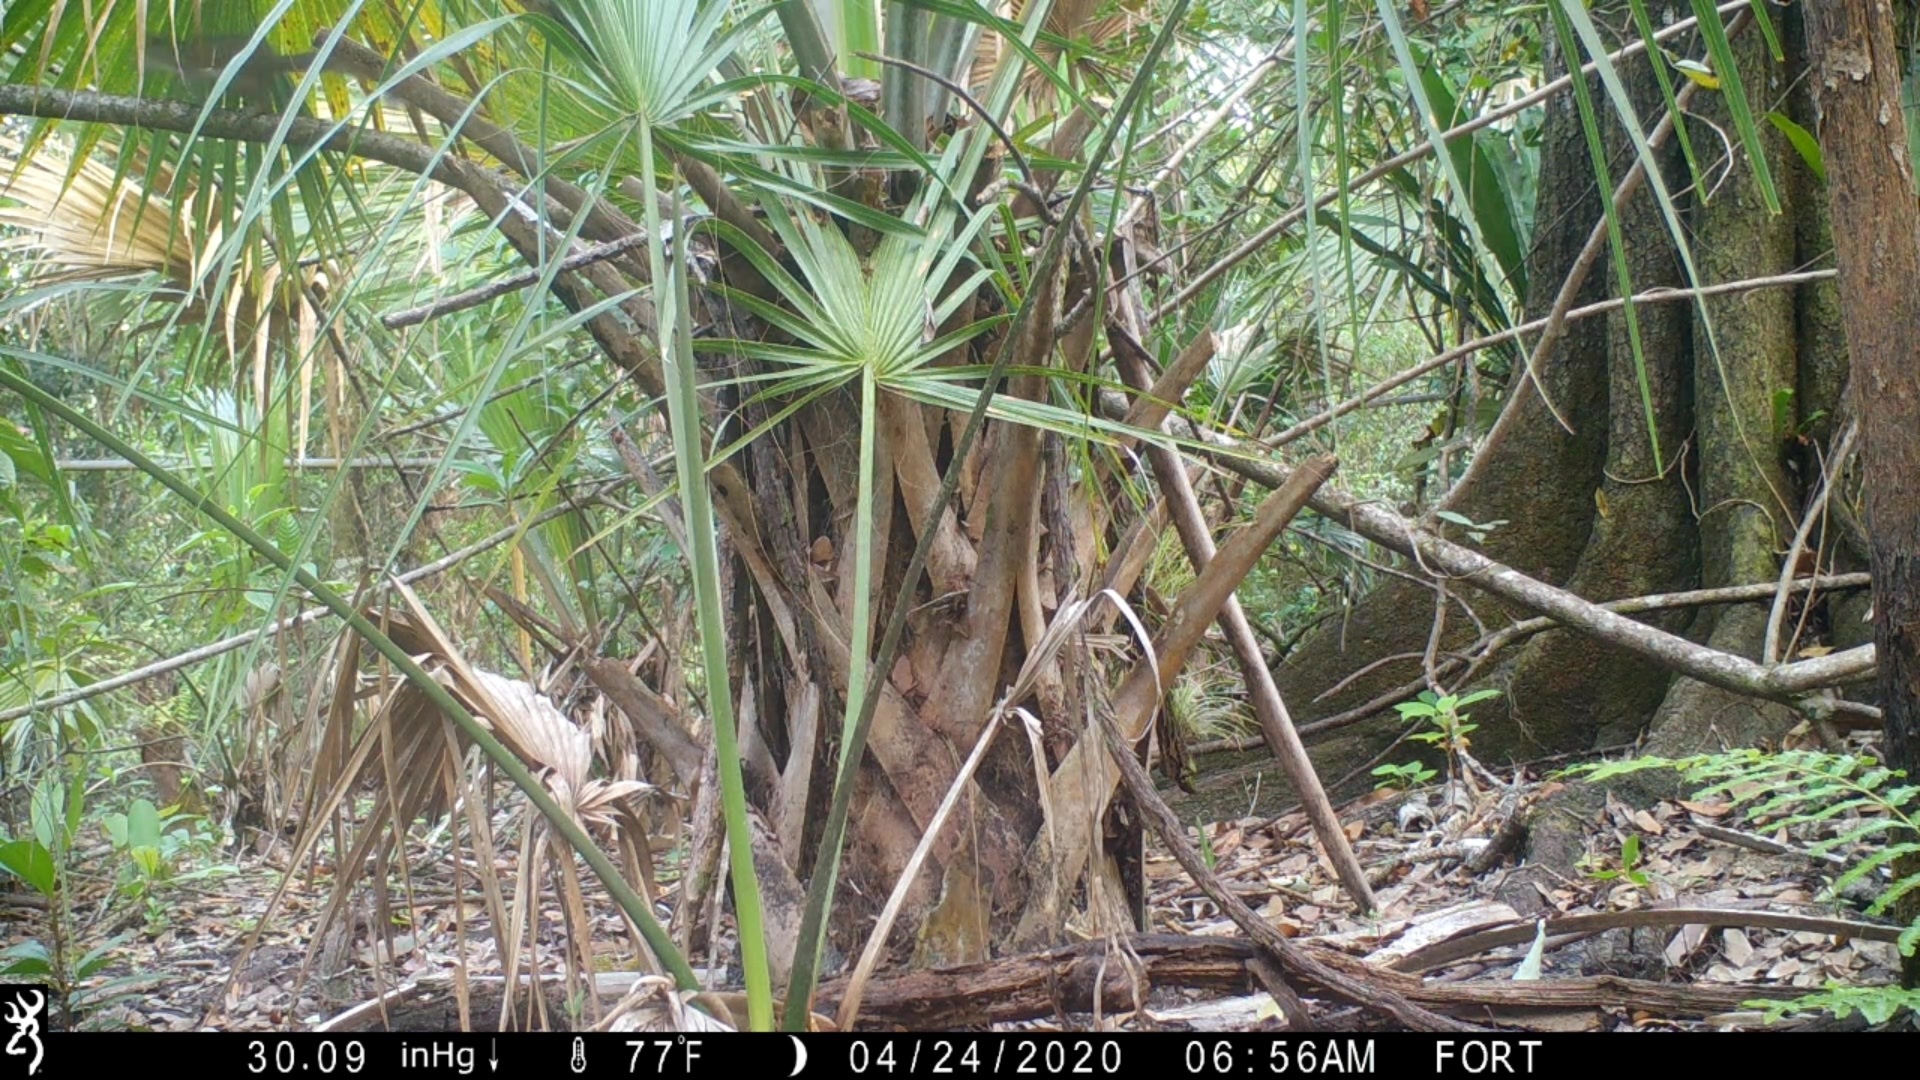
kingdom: Animalia
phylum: Chordata
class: Mammalia
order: Rodentia
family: Sciuridae
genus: Sciurus
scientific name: Sciurus carolinensis
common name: Eastern gray squirrel
